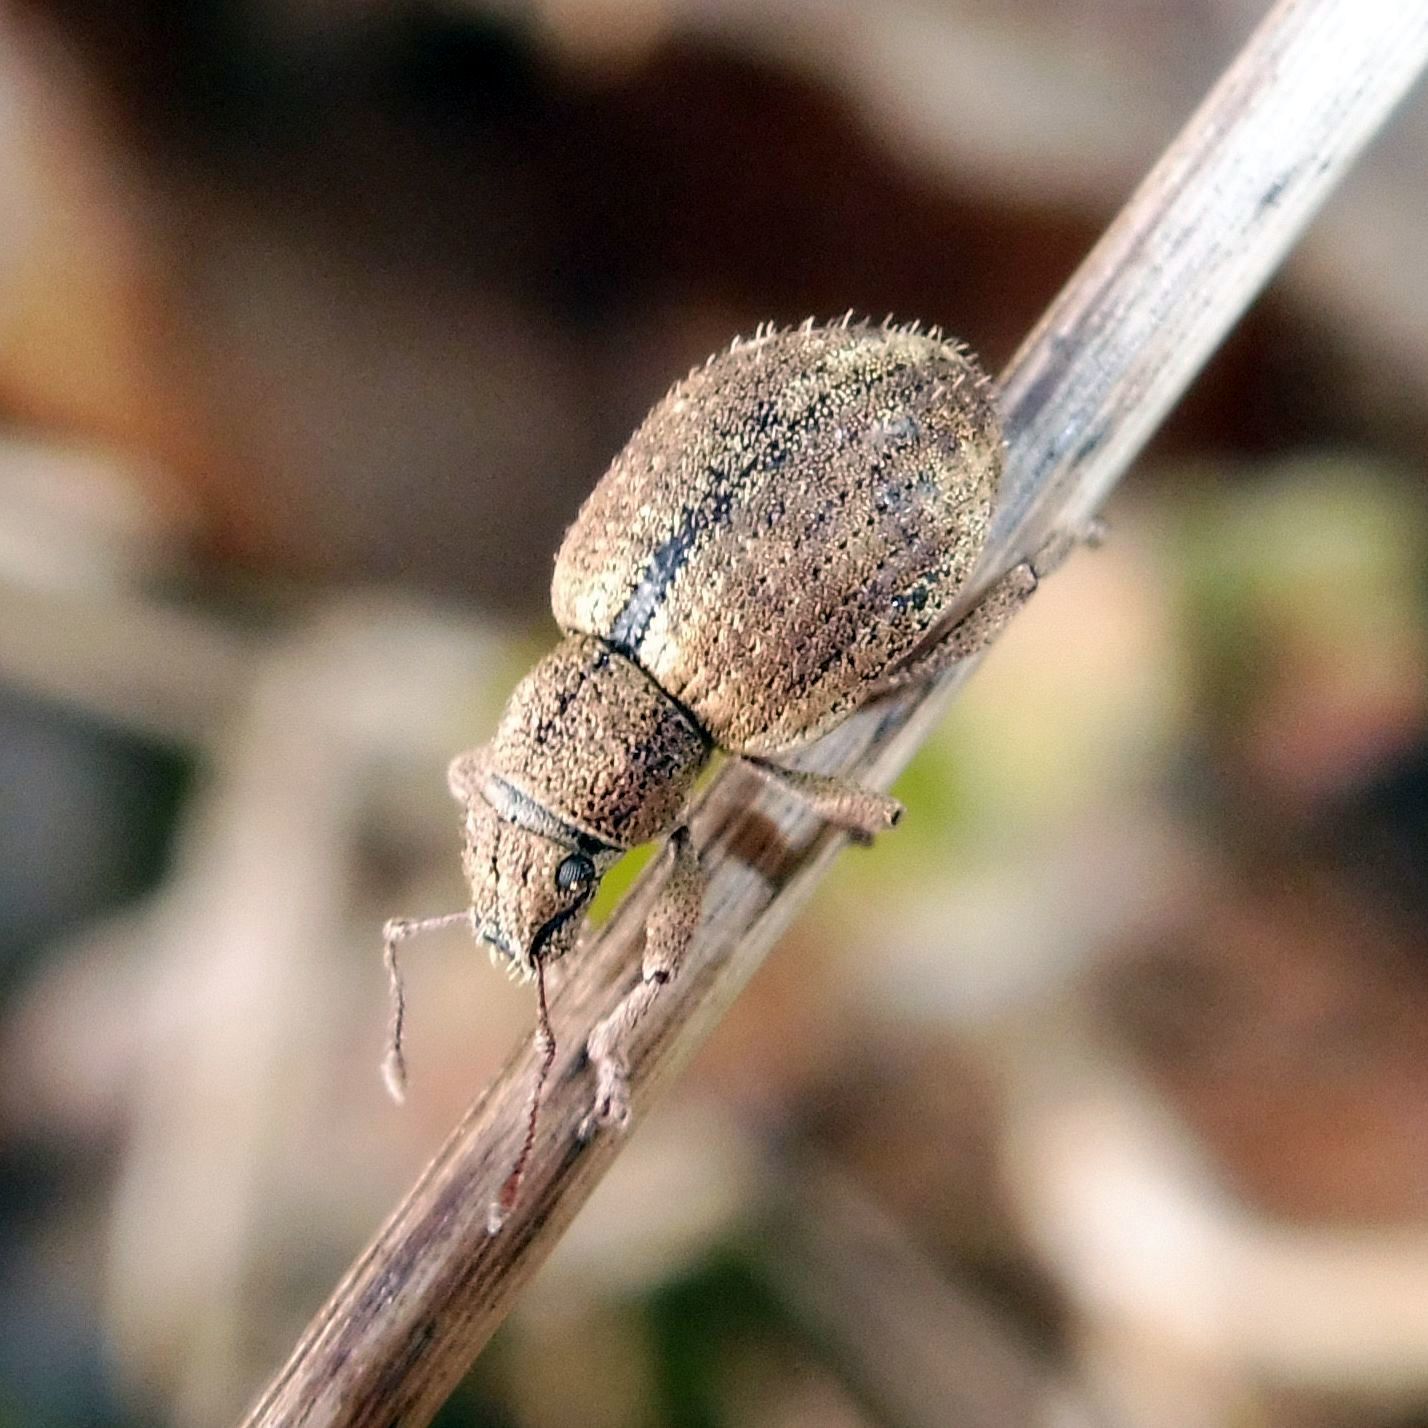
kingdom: Animalia
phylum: Arthropoda
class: Insecta
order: Coleoptera
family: Curculionidae
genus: Strophosoma
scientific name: Strophosoma melanogrammum
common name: Weevil
